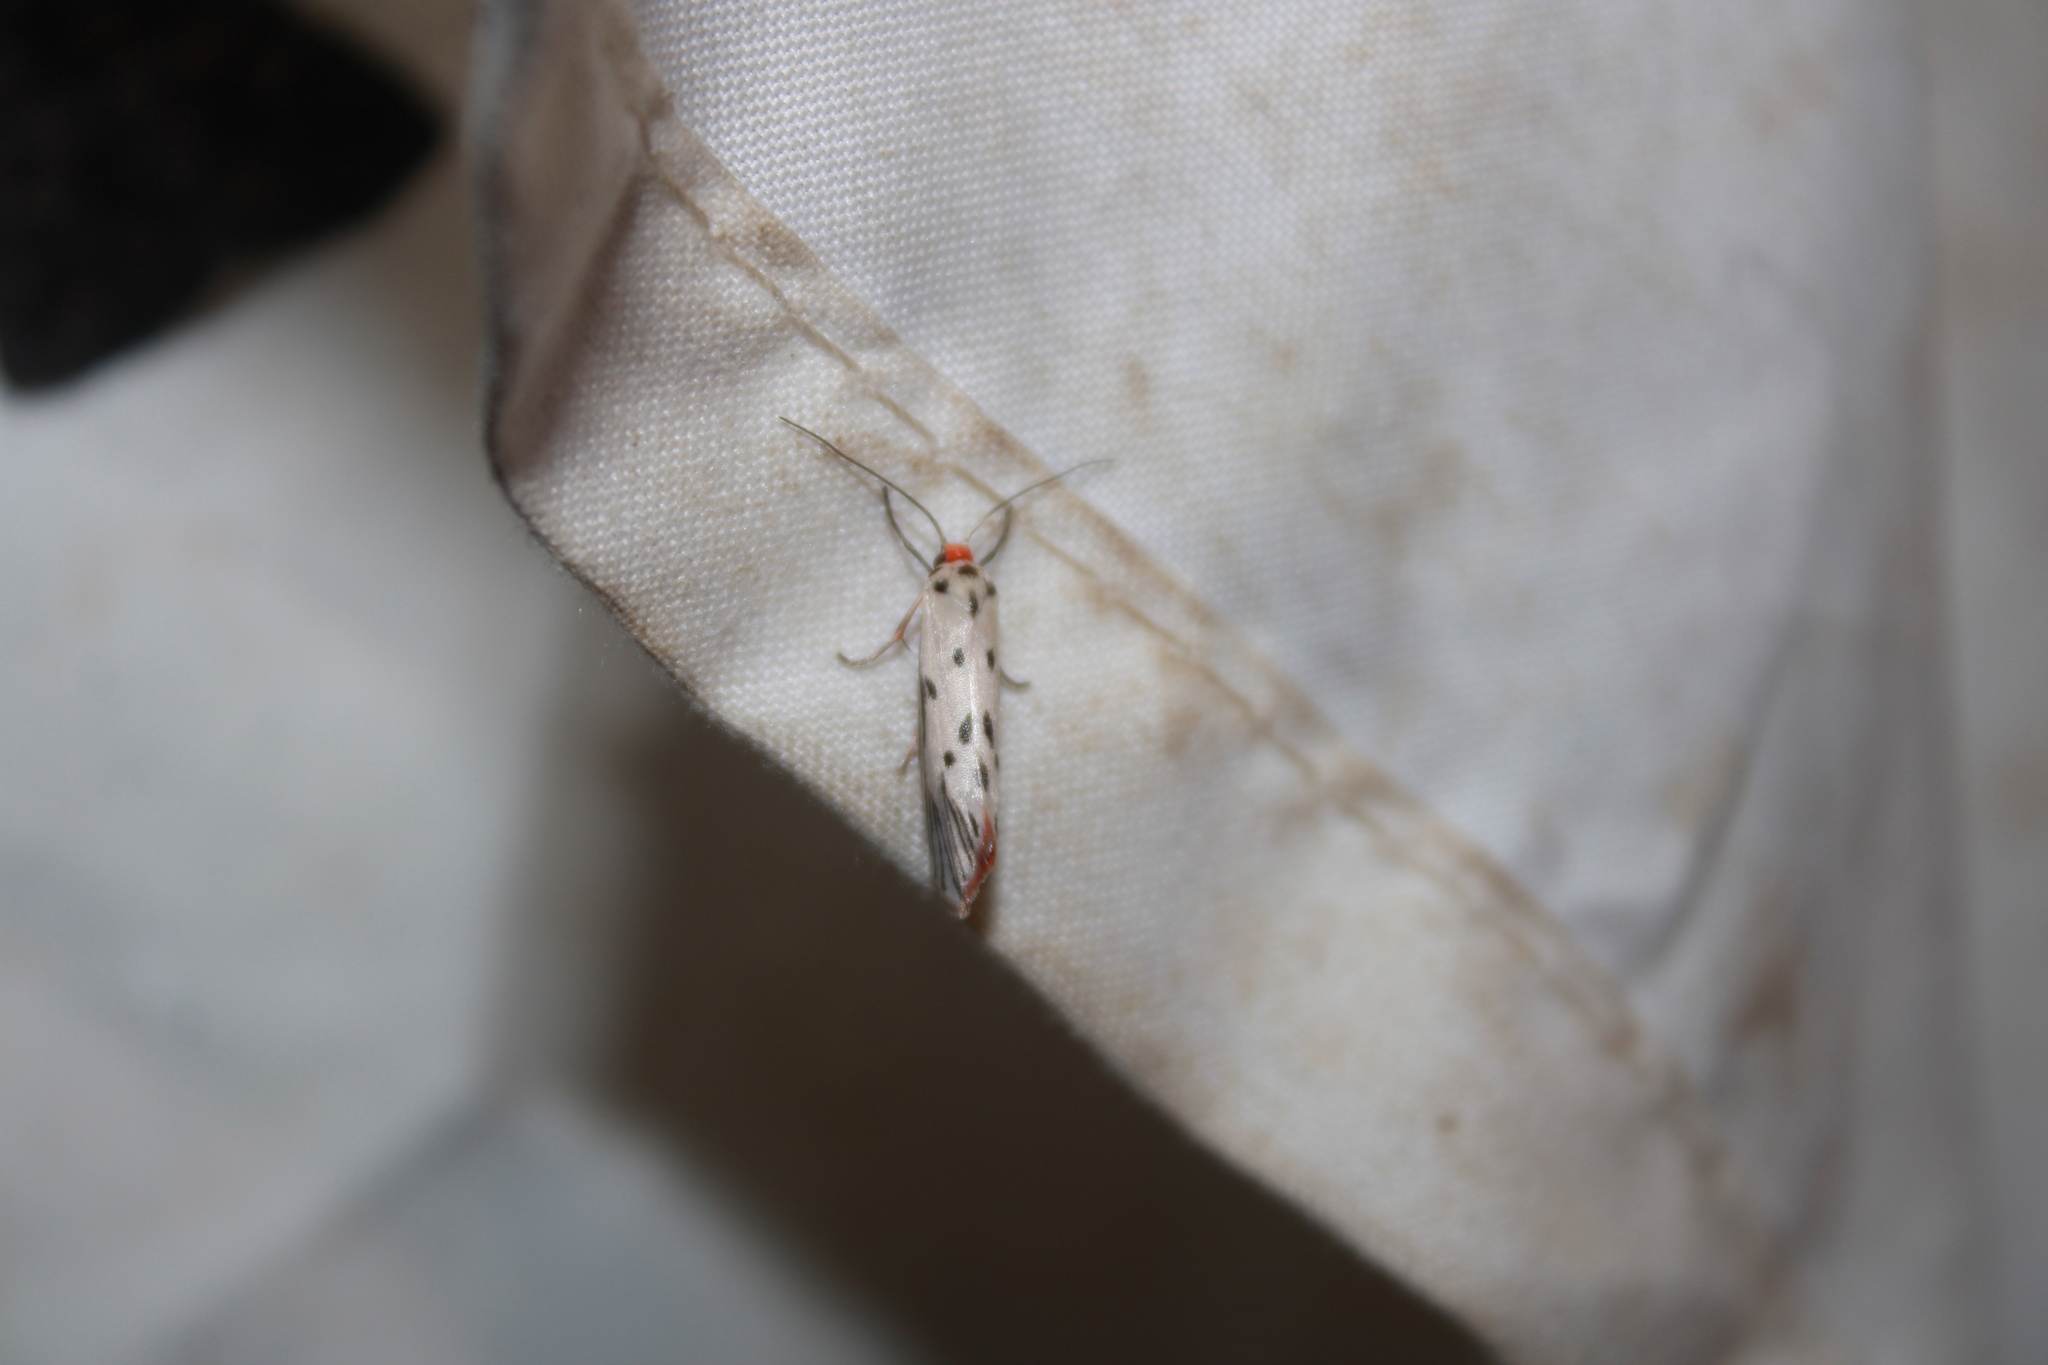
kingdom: Animalia
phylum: Arthropoda
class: Insecta
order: Lepidoptera
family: Lacturidae
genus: Lactura
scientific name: Lactura
